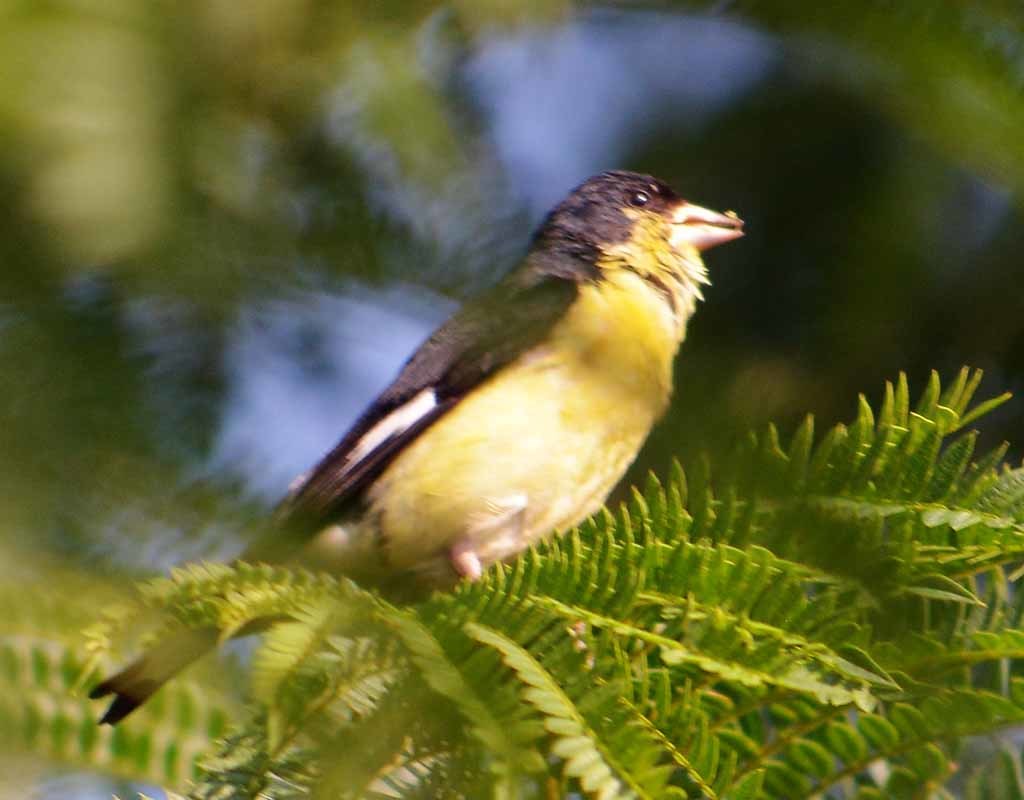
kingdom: Animalia
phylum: Chordata
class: Aves
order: Passeriformes
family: Fringillidae
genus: Spinus
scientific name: Spinus psaltria
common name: Lesser goldfinch
